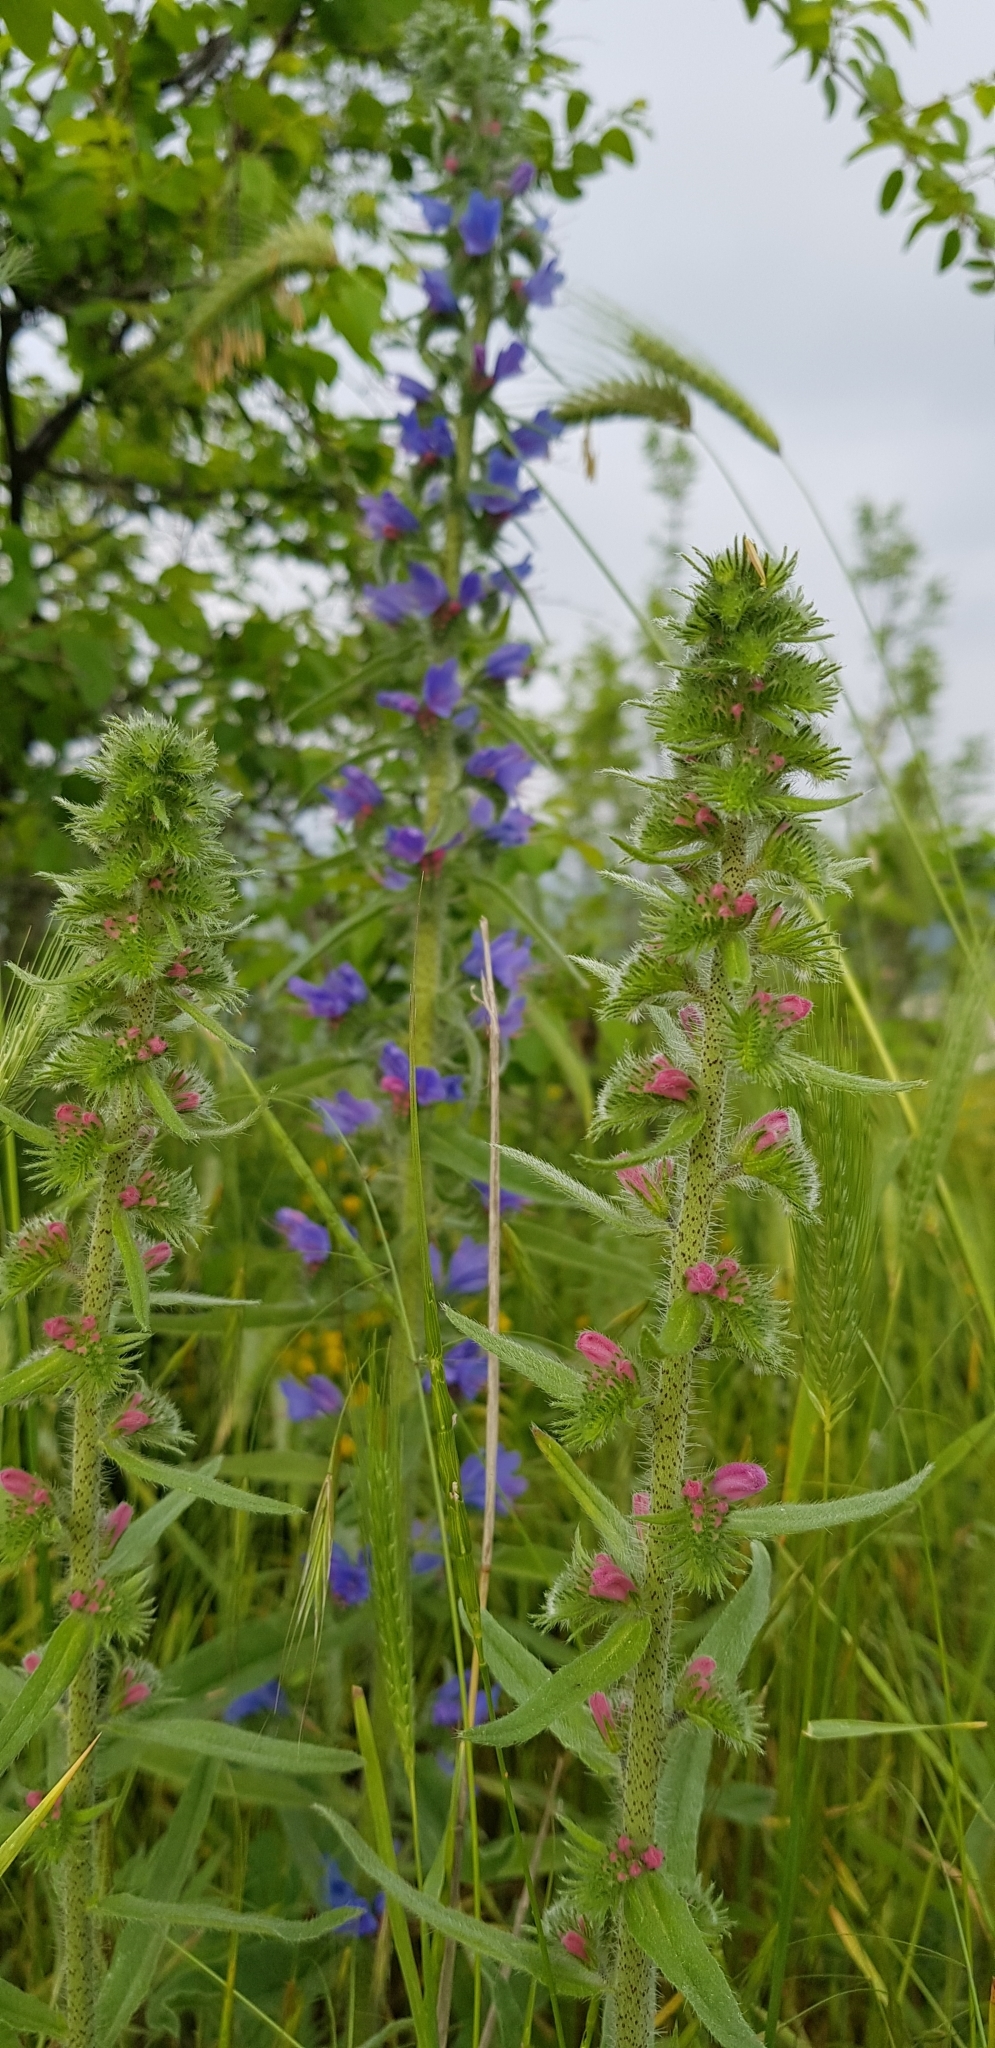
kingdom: Plantae
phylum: Tracheophyta
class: Magnoliopsida
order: Boraginales
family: Boraginaceae
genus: Echium
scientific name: Echium vulgare
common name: Common viper's bugloss
